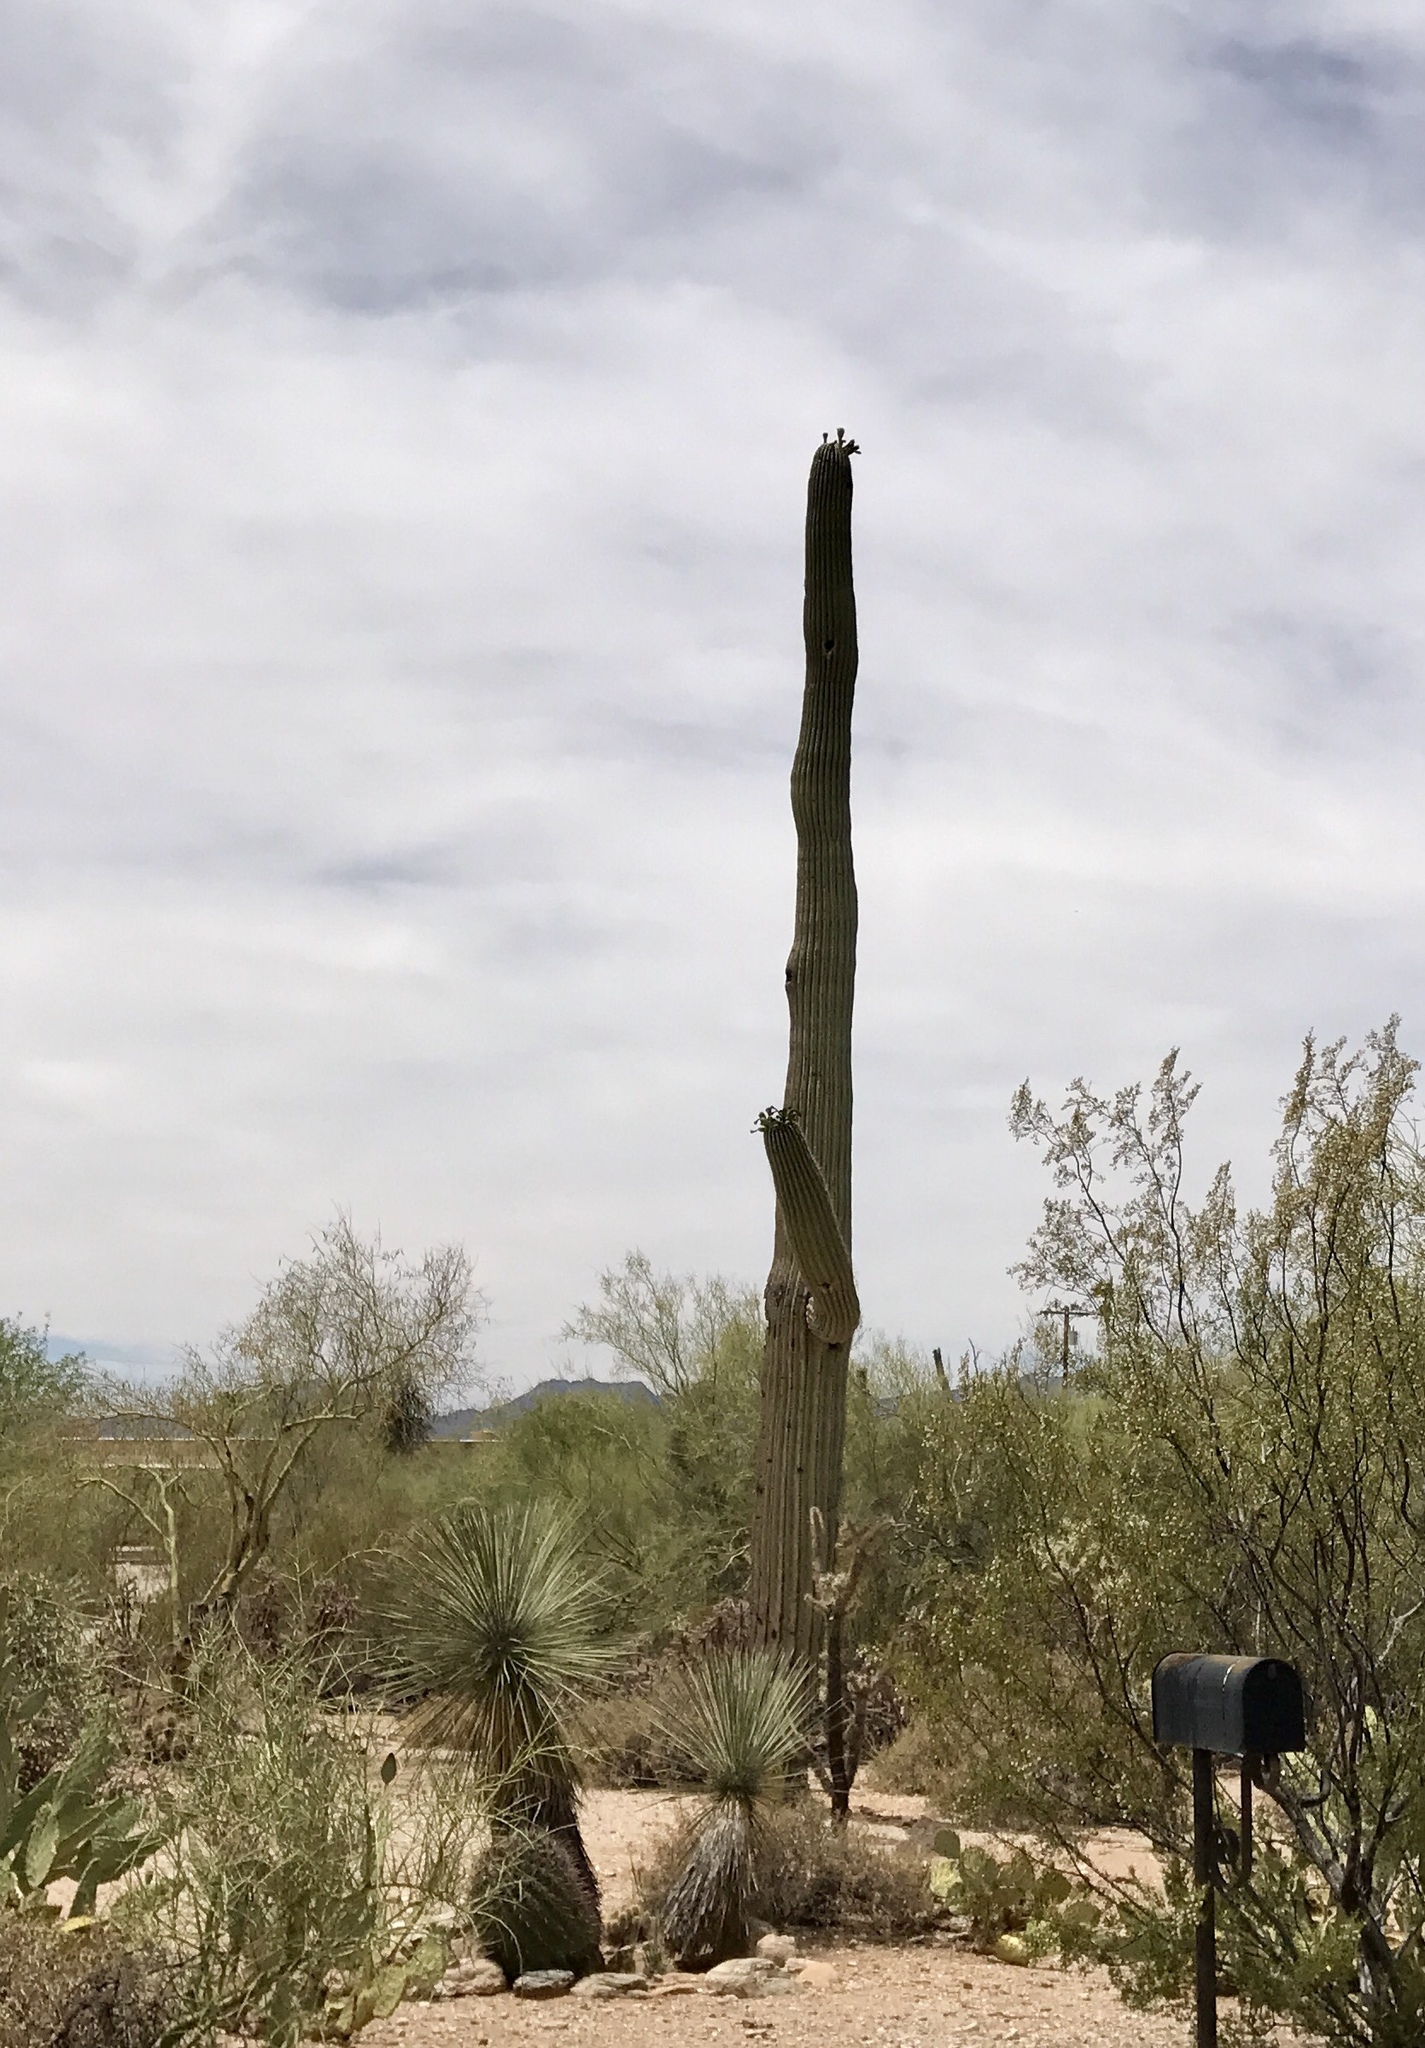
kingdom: Plantae
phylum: Tracheophyta
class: Magnoliopsida
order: Caryophyllales
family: Cactaceae
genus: Carnegiea
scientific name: Carnegiea gigantea
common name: Saguaro
